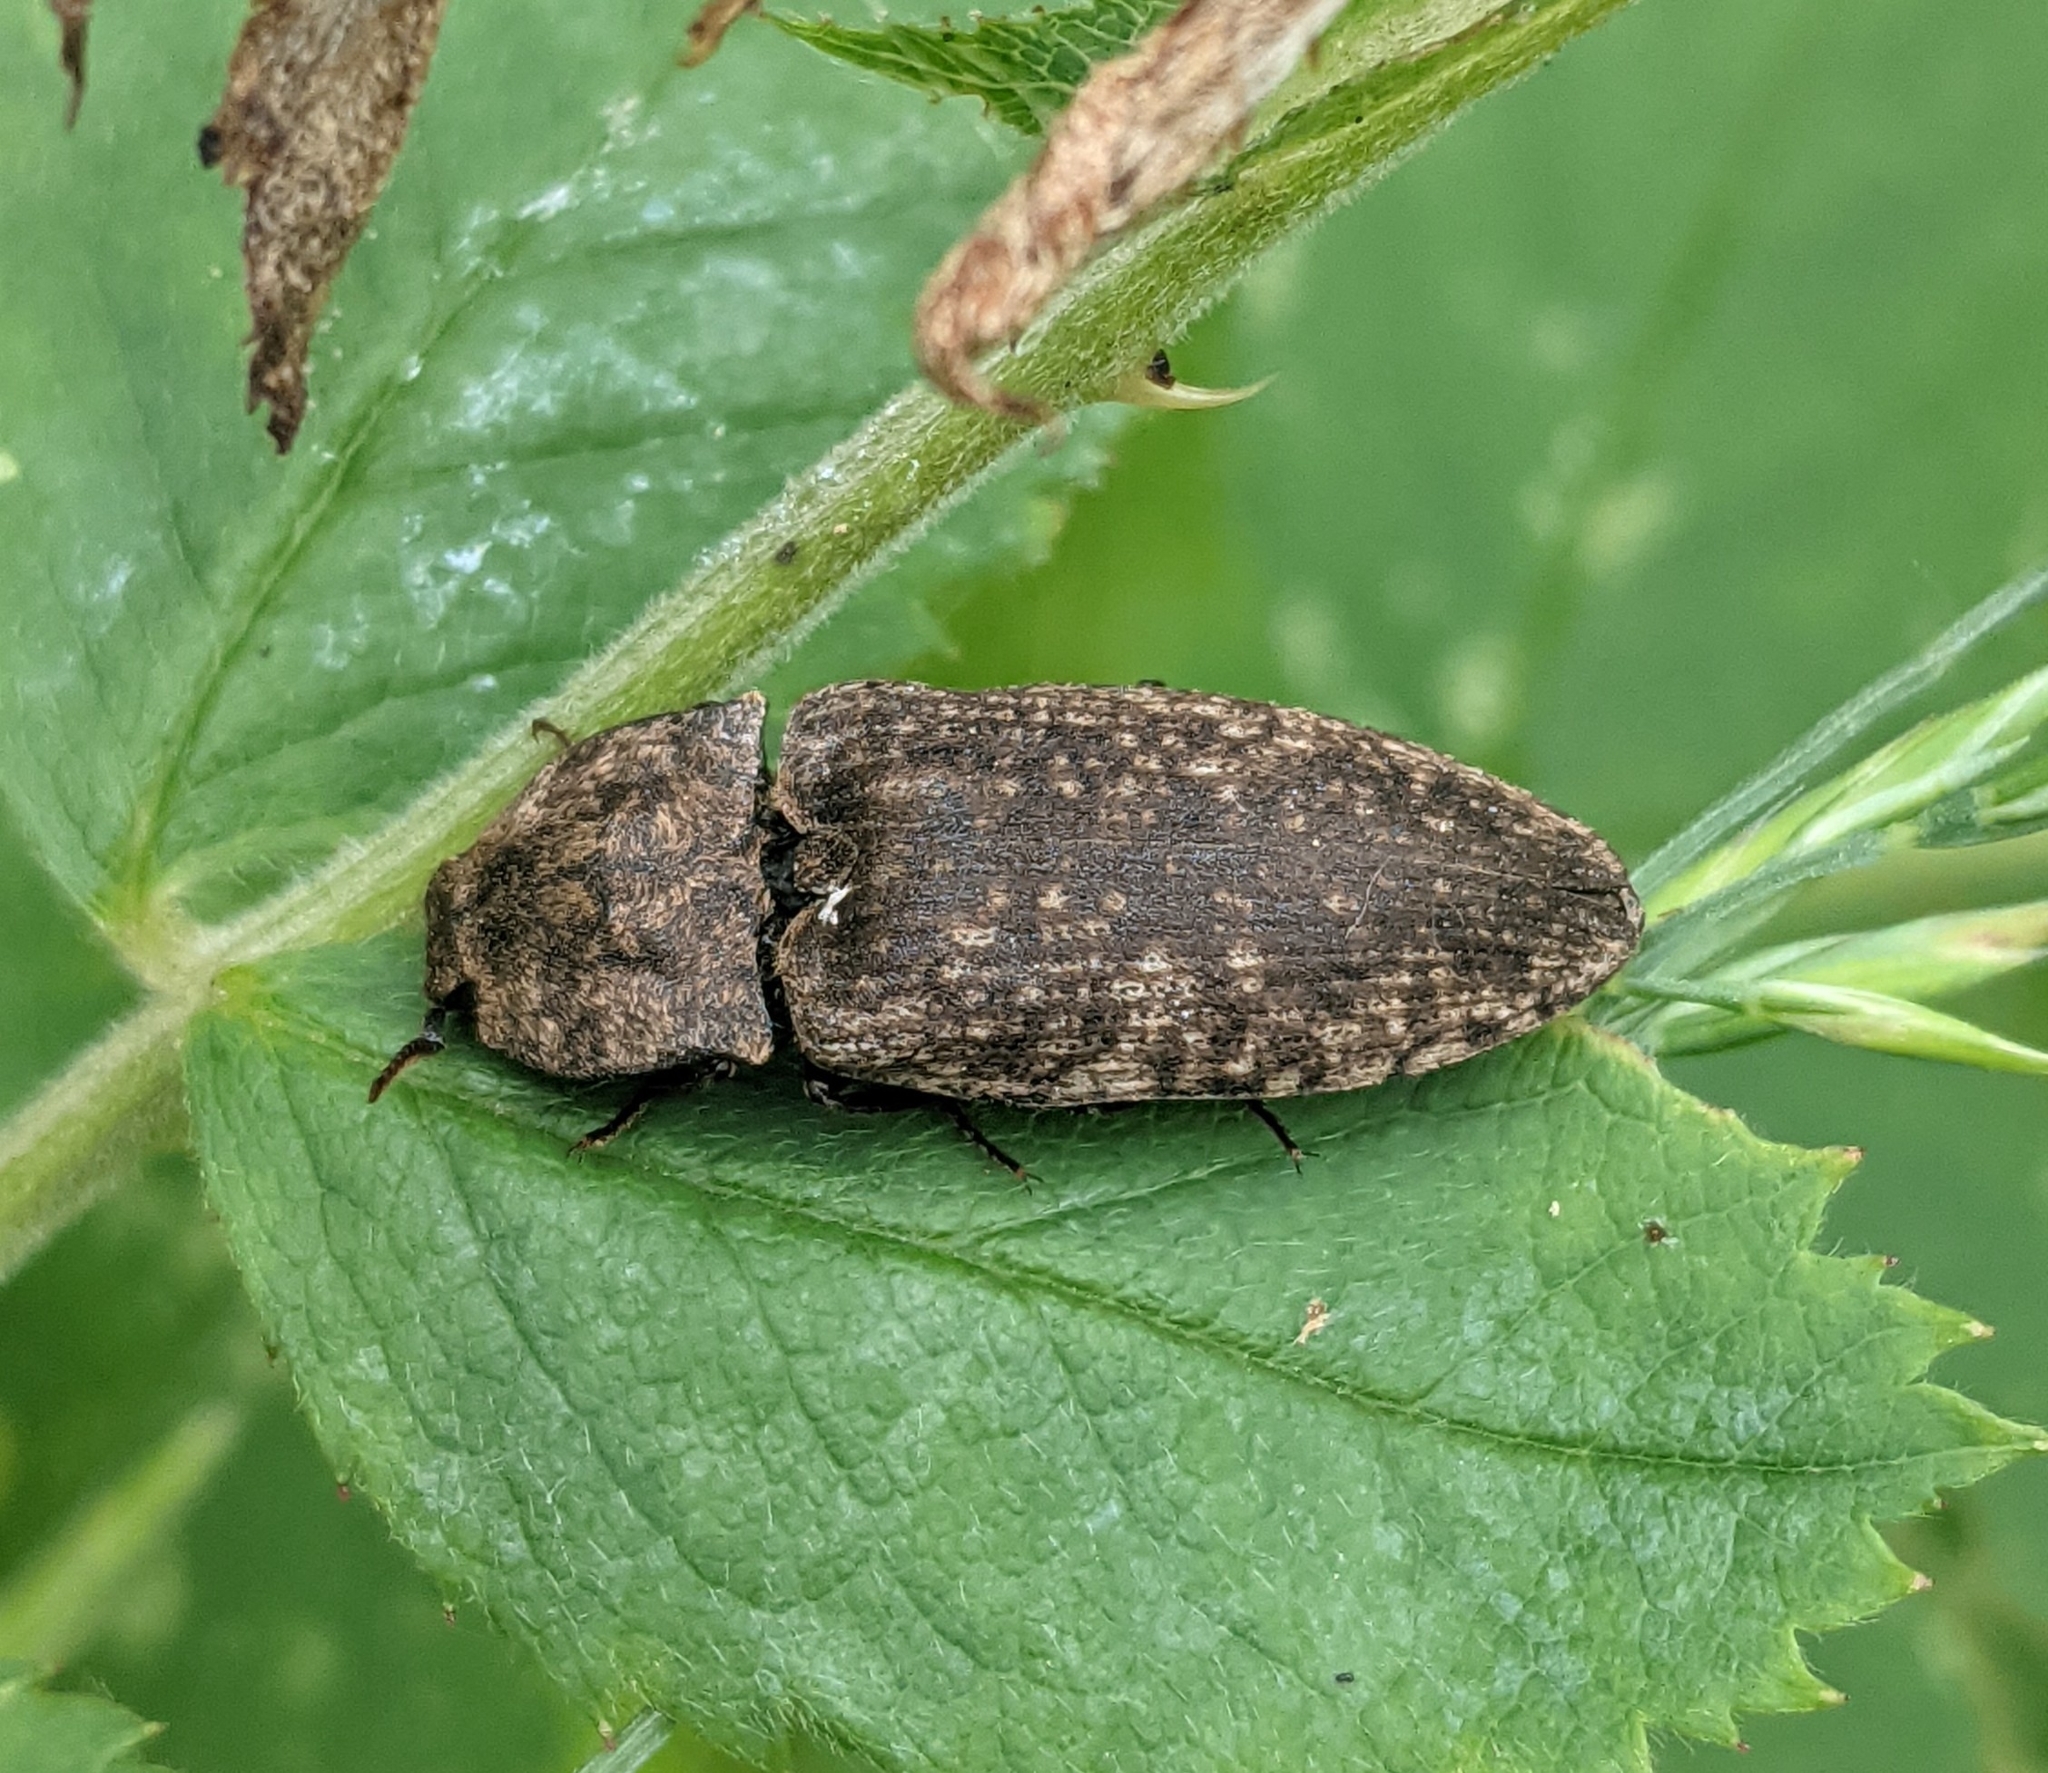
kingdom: Animalia
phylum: Arthropoda
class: Insecta
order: Coleoptera
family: Elateridae
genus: Agrypnus
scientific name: Agrypnus murinus
